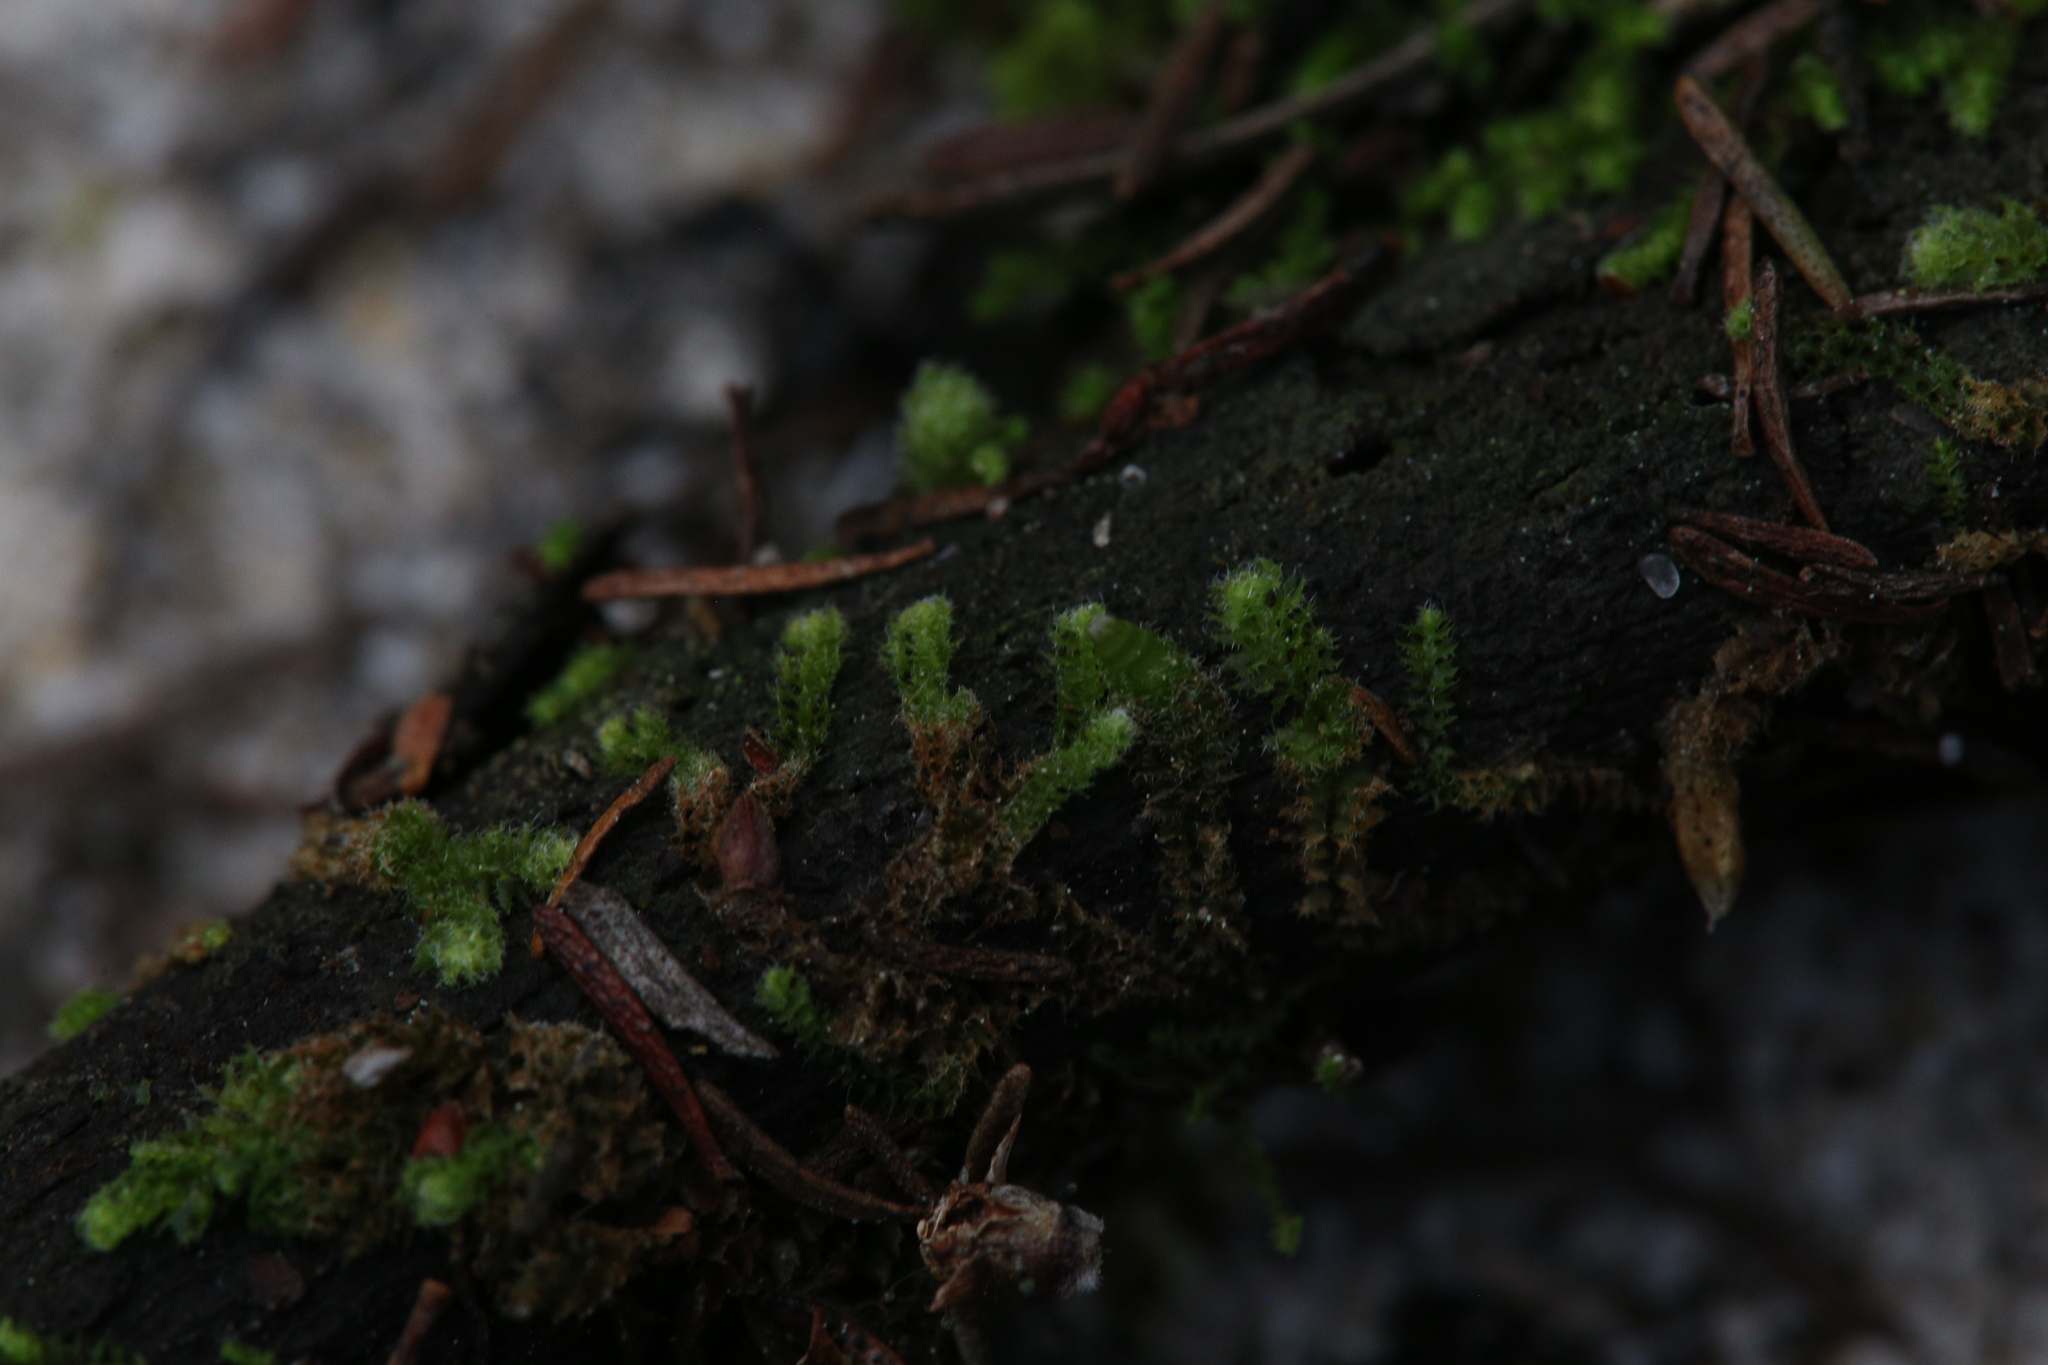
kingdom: Plantae
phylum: Marchantiophyta
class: Jungermanniopsida
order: Jungermanniales
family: Cephaloziellaceae
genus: Chaetophyllopsis
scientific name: Chaetophyllopsis whiteleggei
